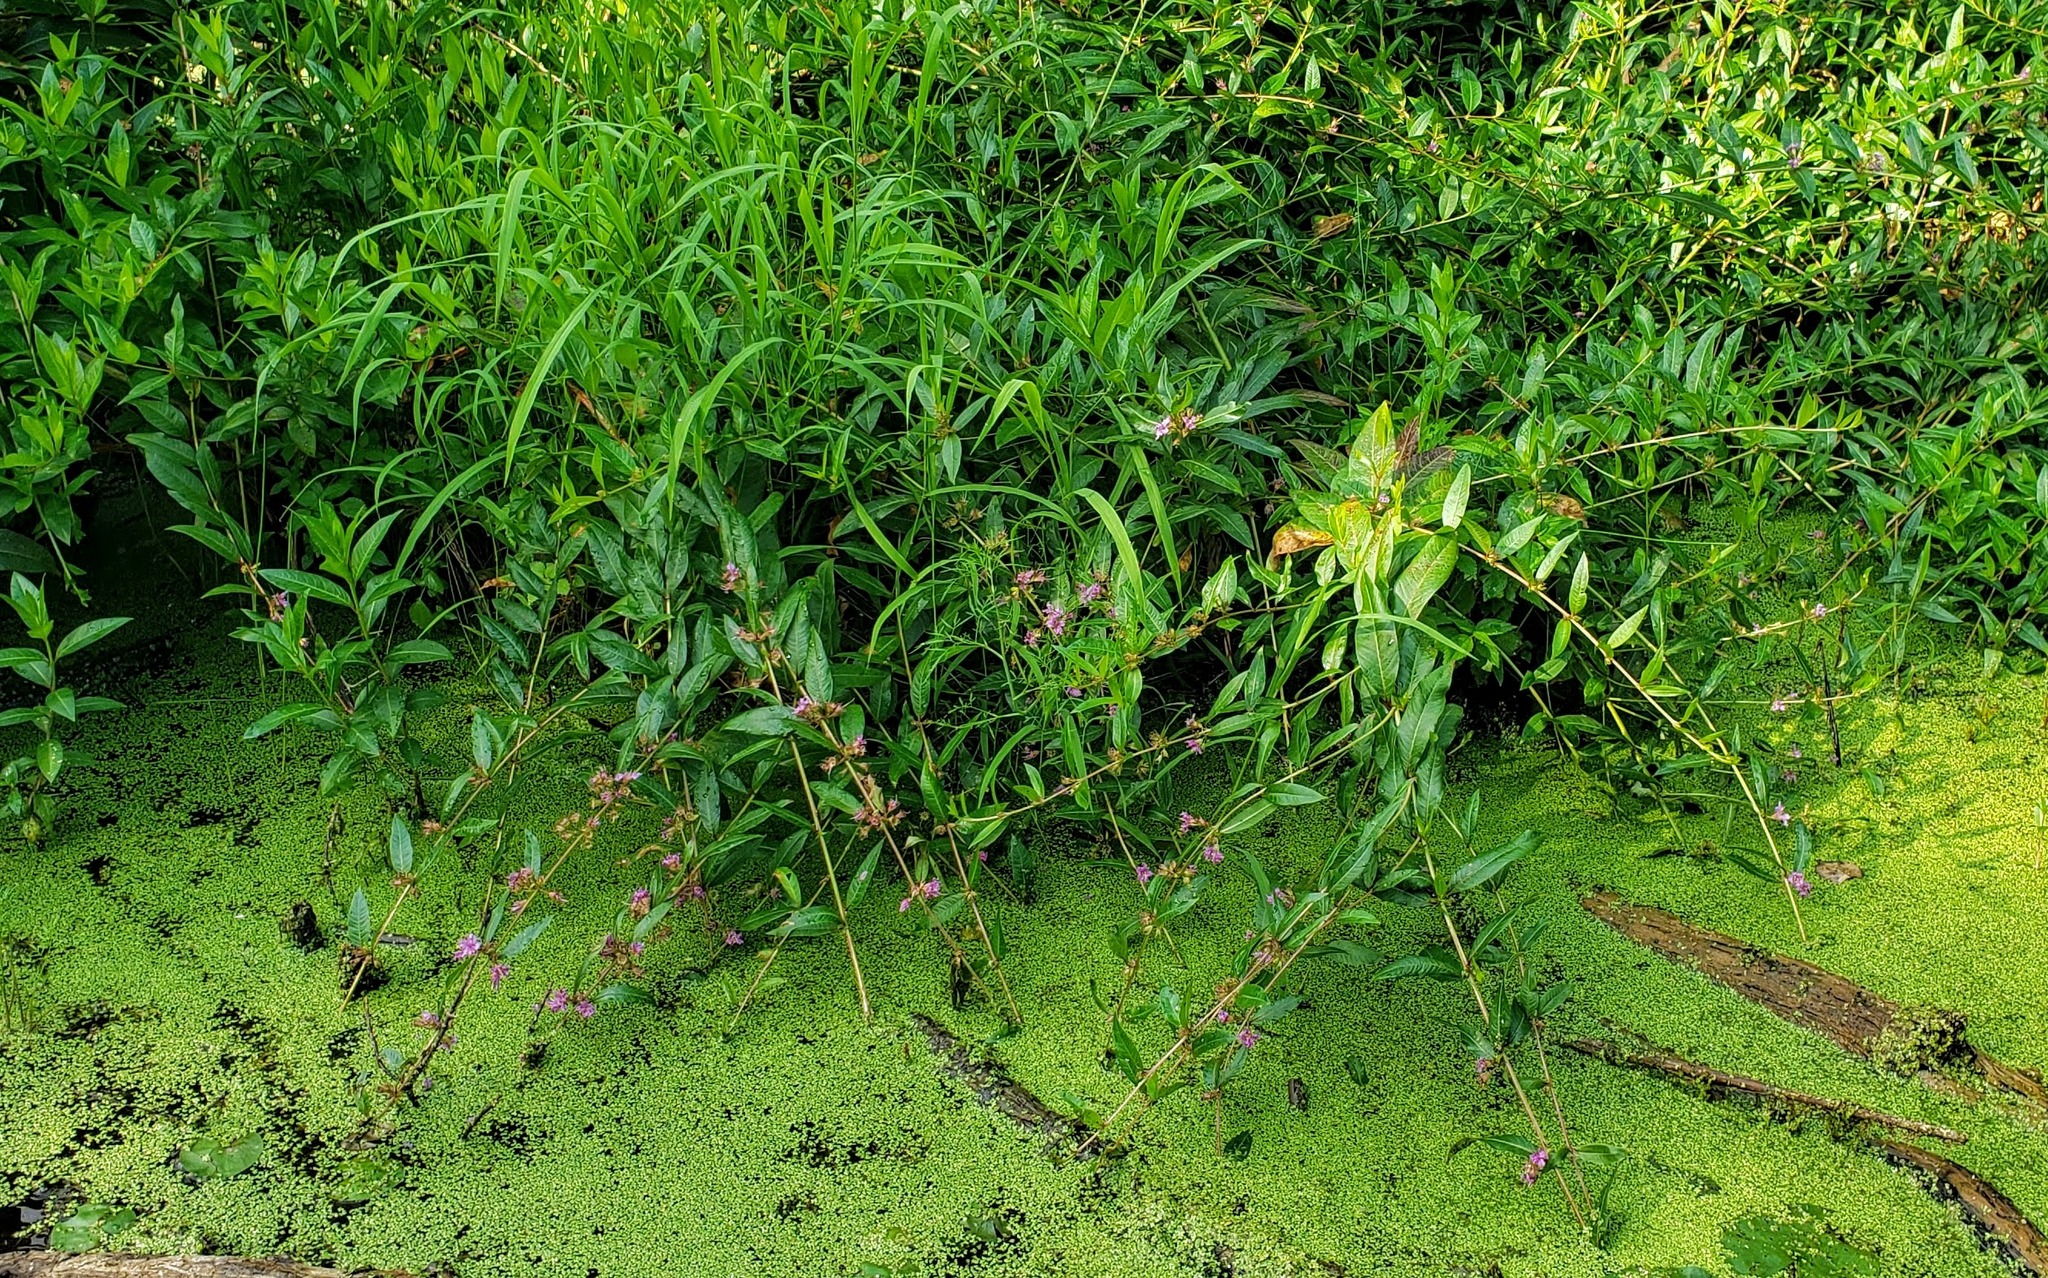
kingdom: Plantae
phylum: Tracheophyta
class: Magnoliopsida
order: Myrtales
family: Lythraceae
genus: Decodon
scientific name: Decodon verticillatus
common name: Hairy swamp loosestrife
